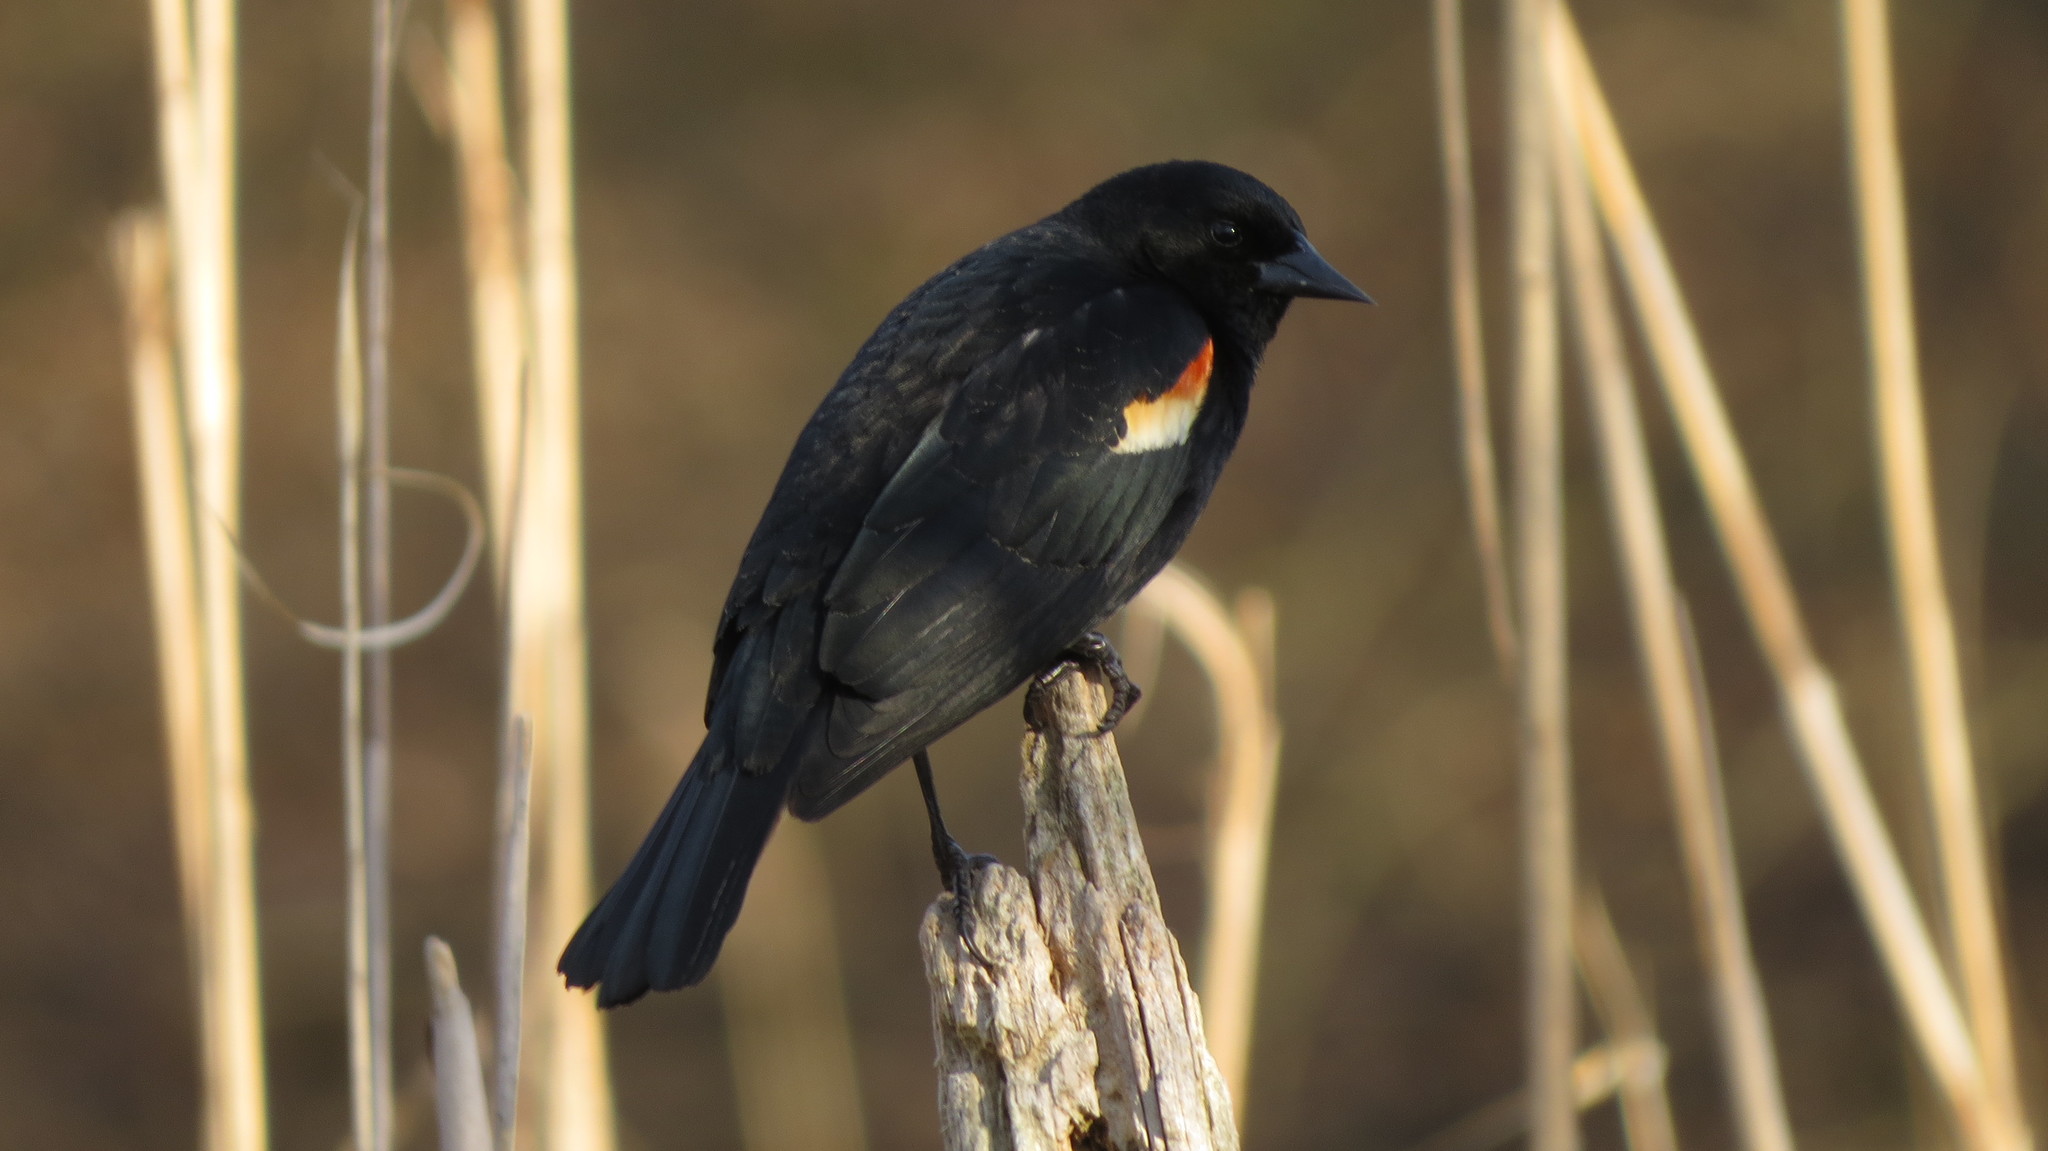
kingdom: Animalia
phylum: Chordata
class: Aves
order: Passeriformes
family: Icteridae
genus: Agelaius
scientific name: Agelaius phoeniceus
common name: Red-winged blackbird
